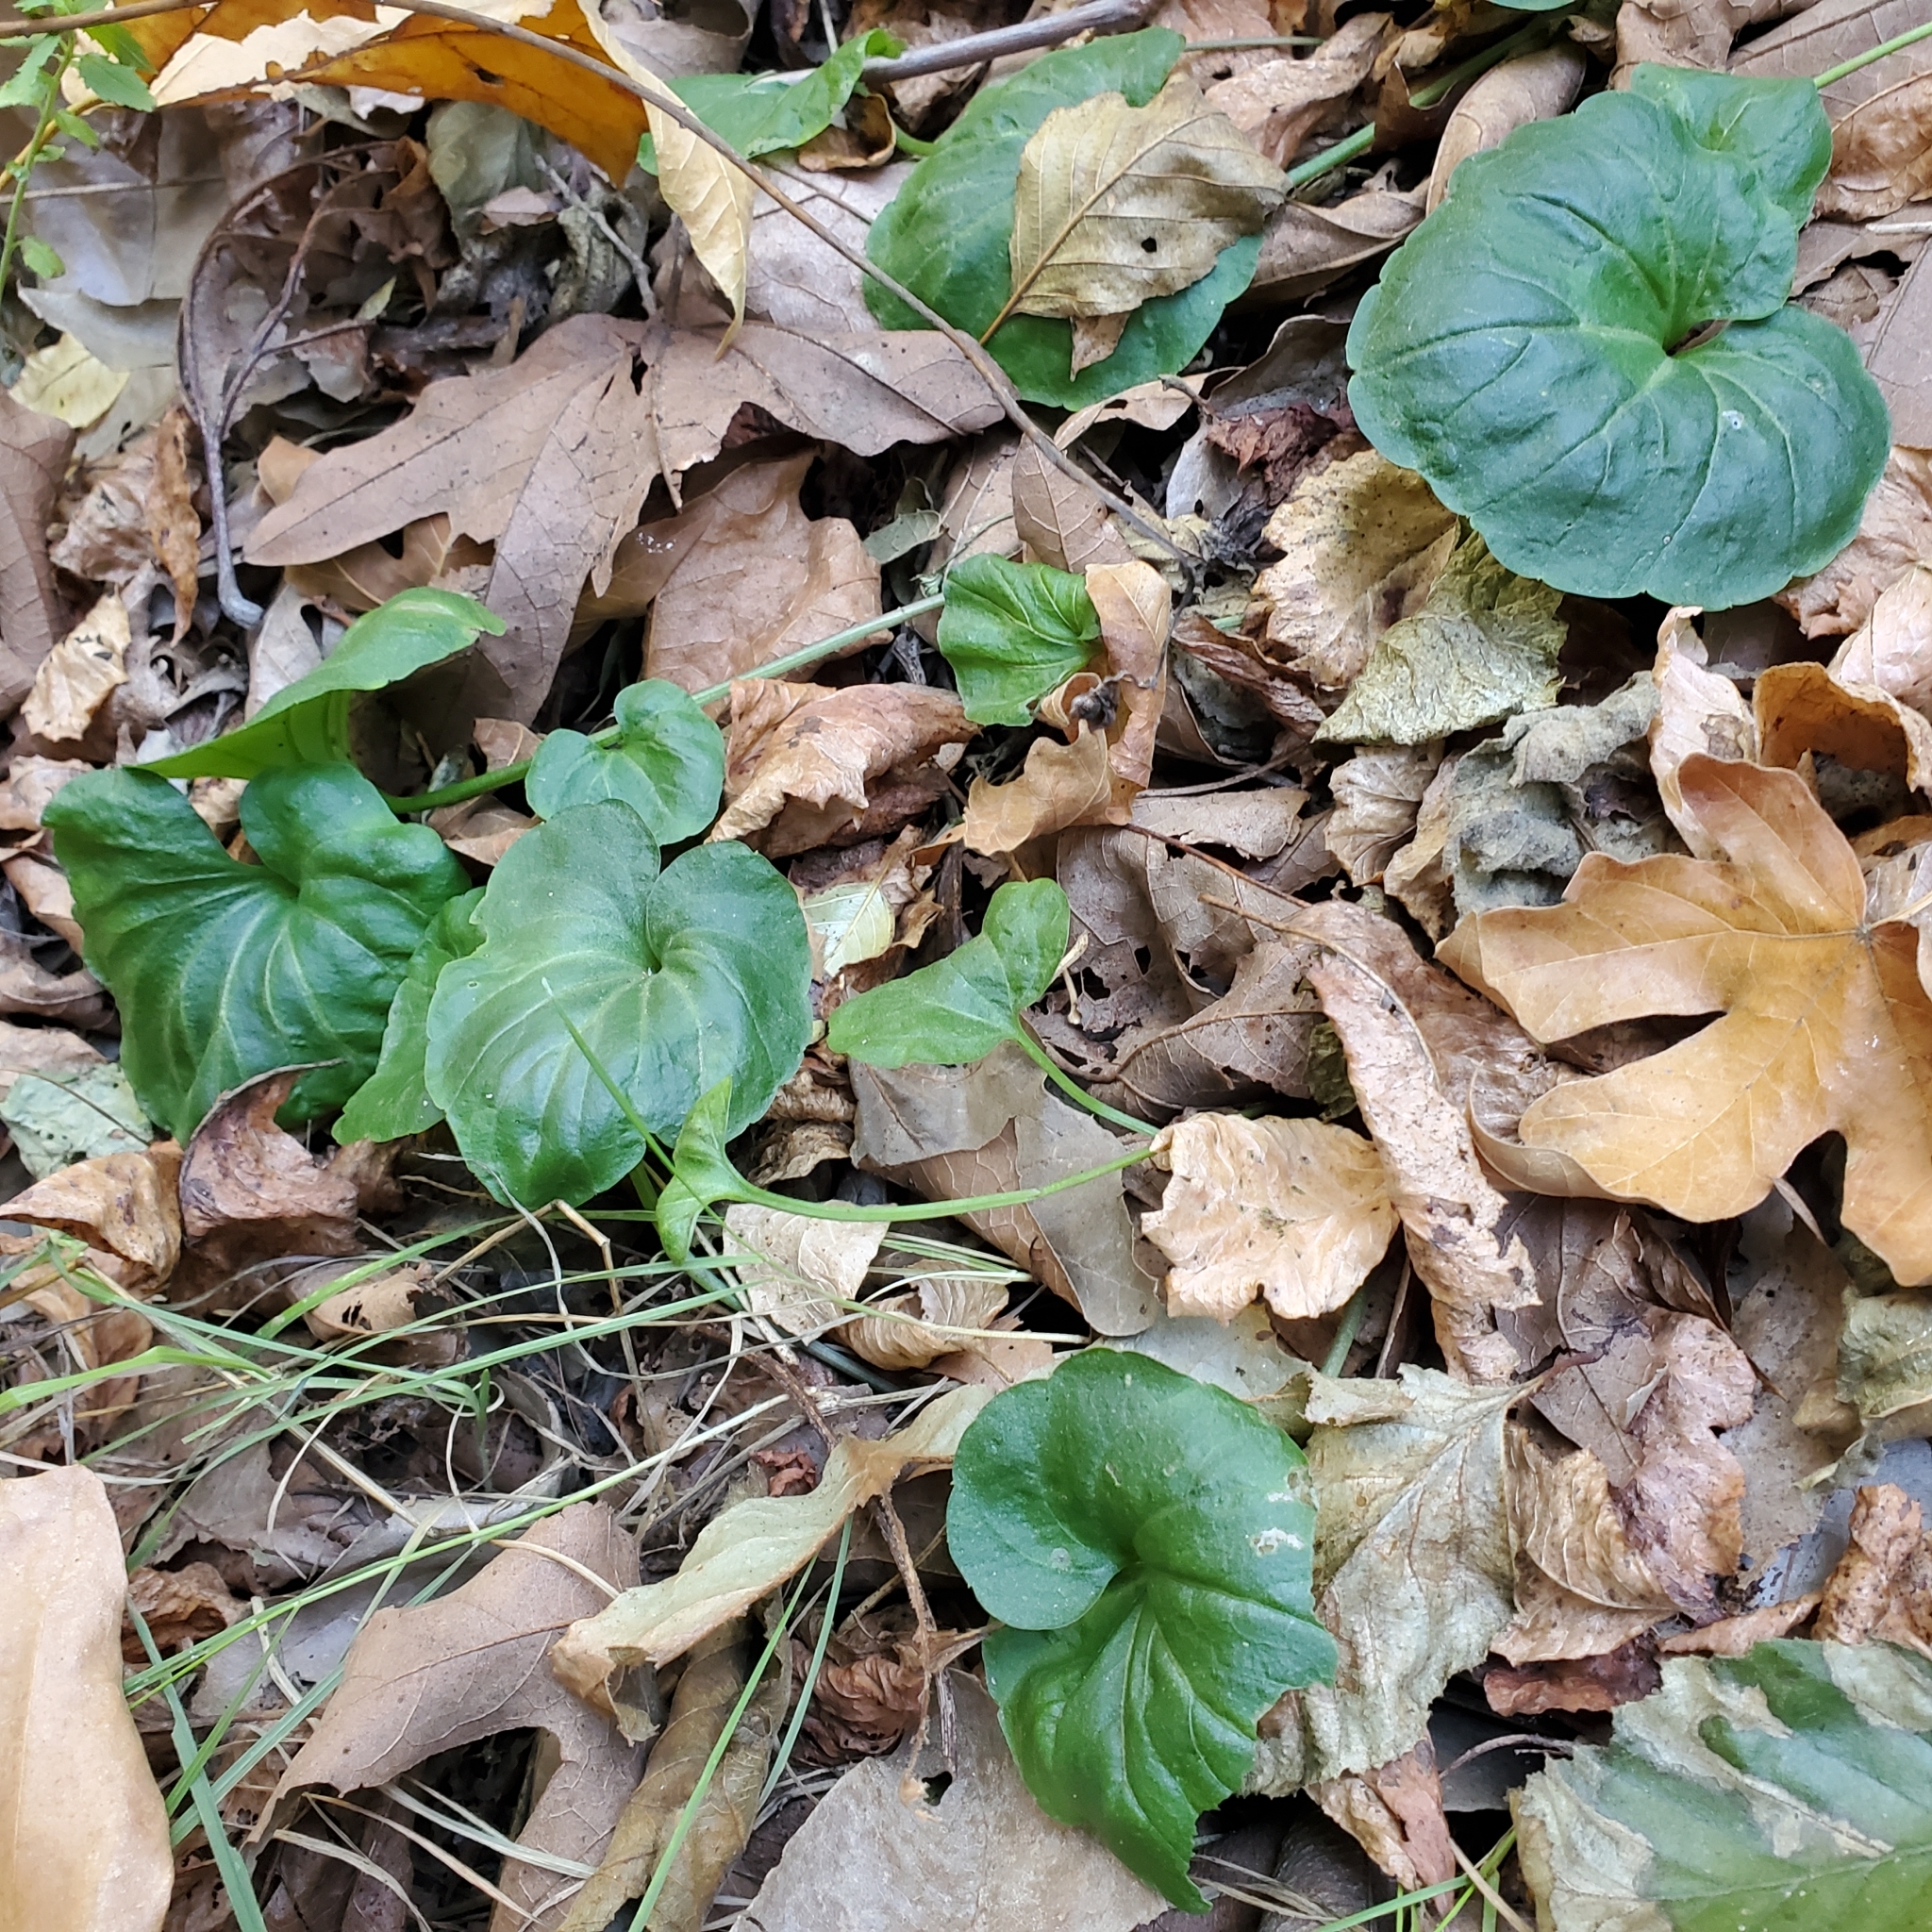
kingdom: Plantae
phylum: Tracheophyta
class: Magnoliopsida
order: Brassicales
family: Brassicaceae
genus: Cardamine
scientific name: Cardamine californica
